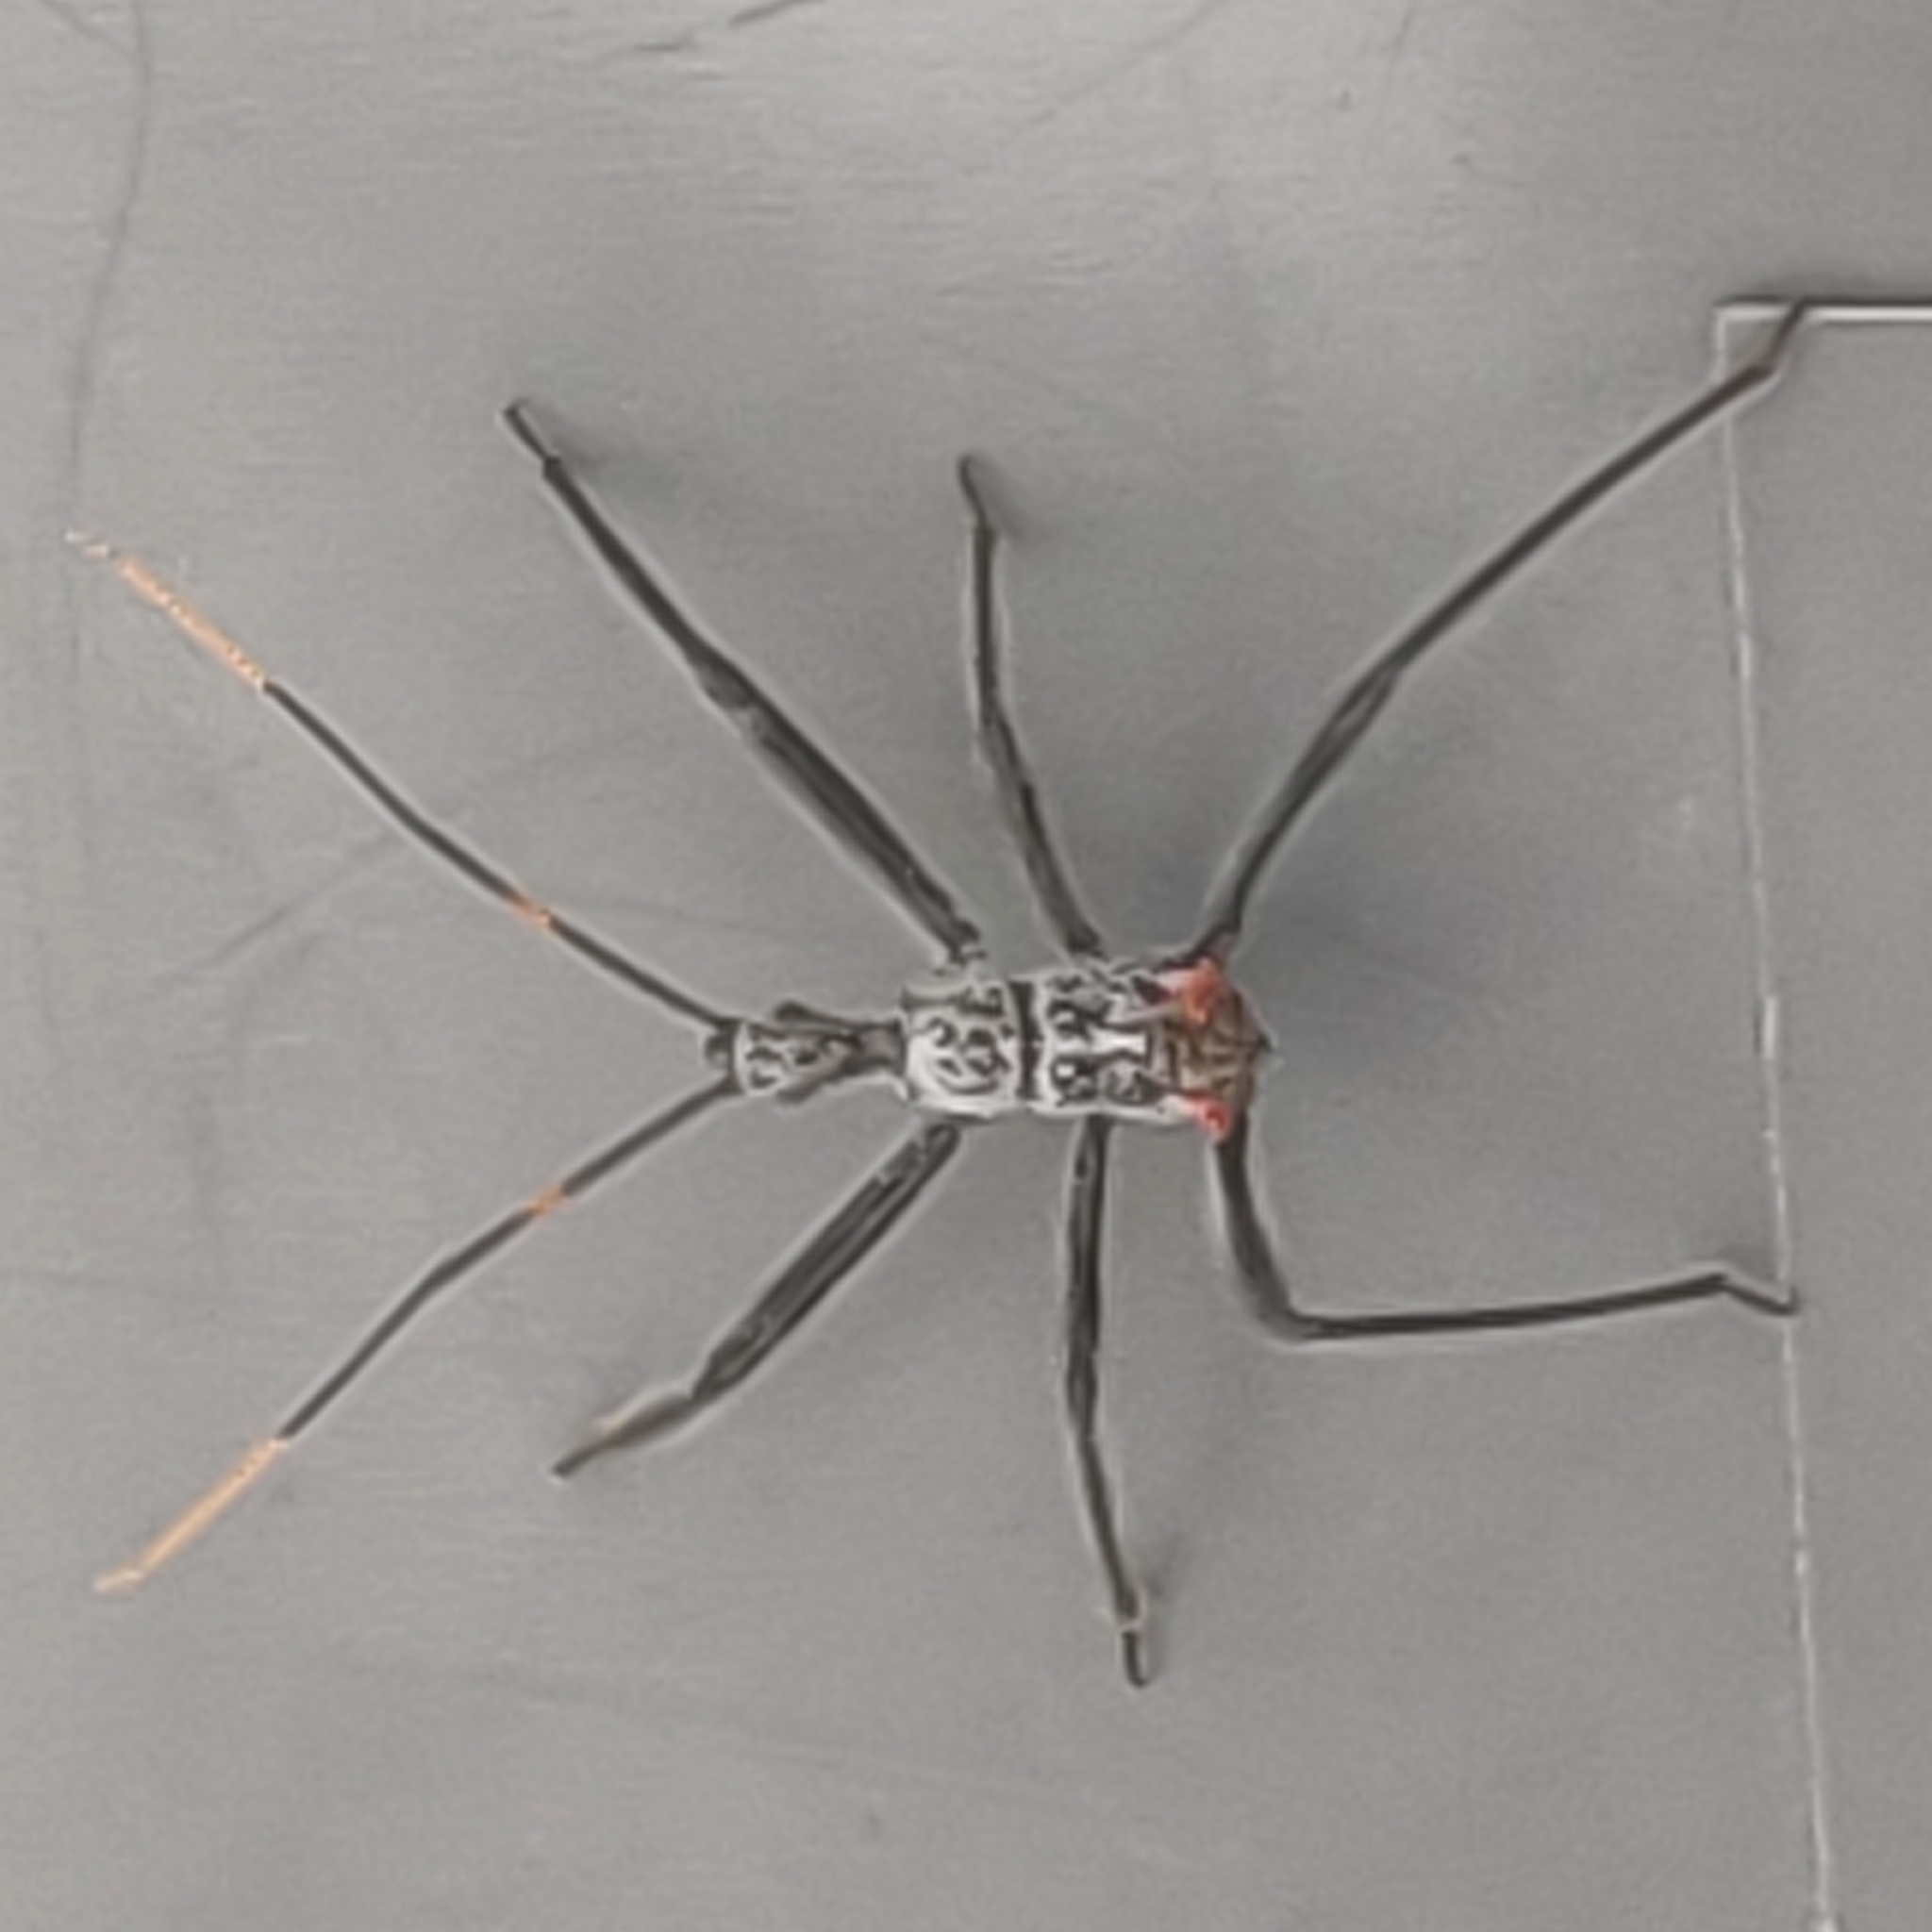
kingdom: Animalia
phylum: Arthropoda
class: Insecta
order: Hemiptera
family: Reduviidae
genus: Arilus
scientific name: Arilus cristatus
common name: North american wheel bug
